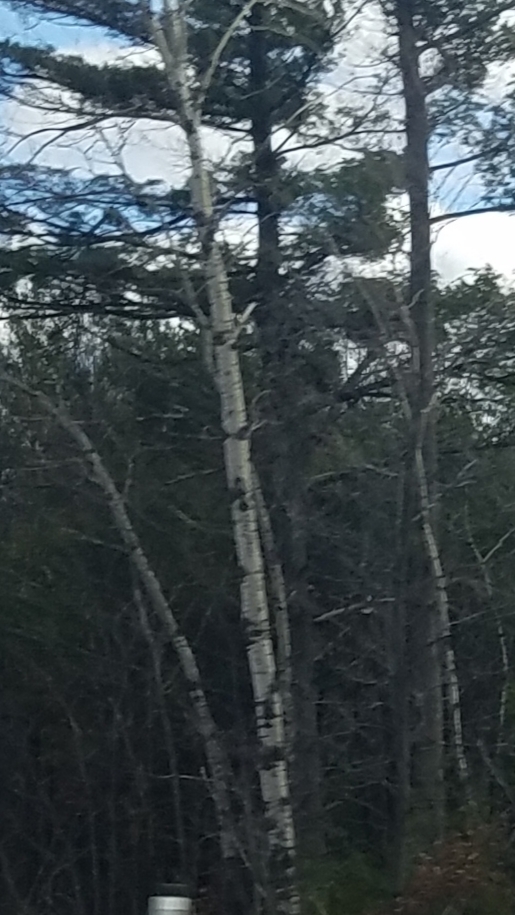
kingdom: Plantae
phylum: Tracheophyta
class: Magnoliopsida
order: Malpighiales
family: Salicaceae
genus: Populus
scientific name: Populus tremuloides
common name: Quaking aspen
